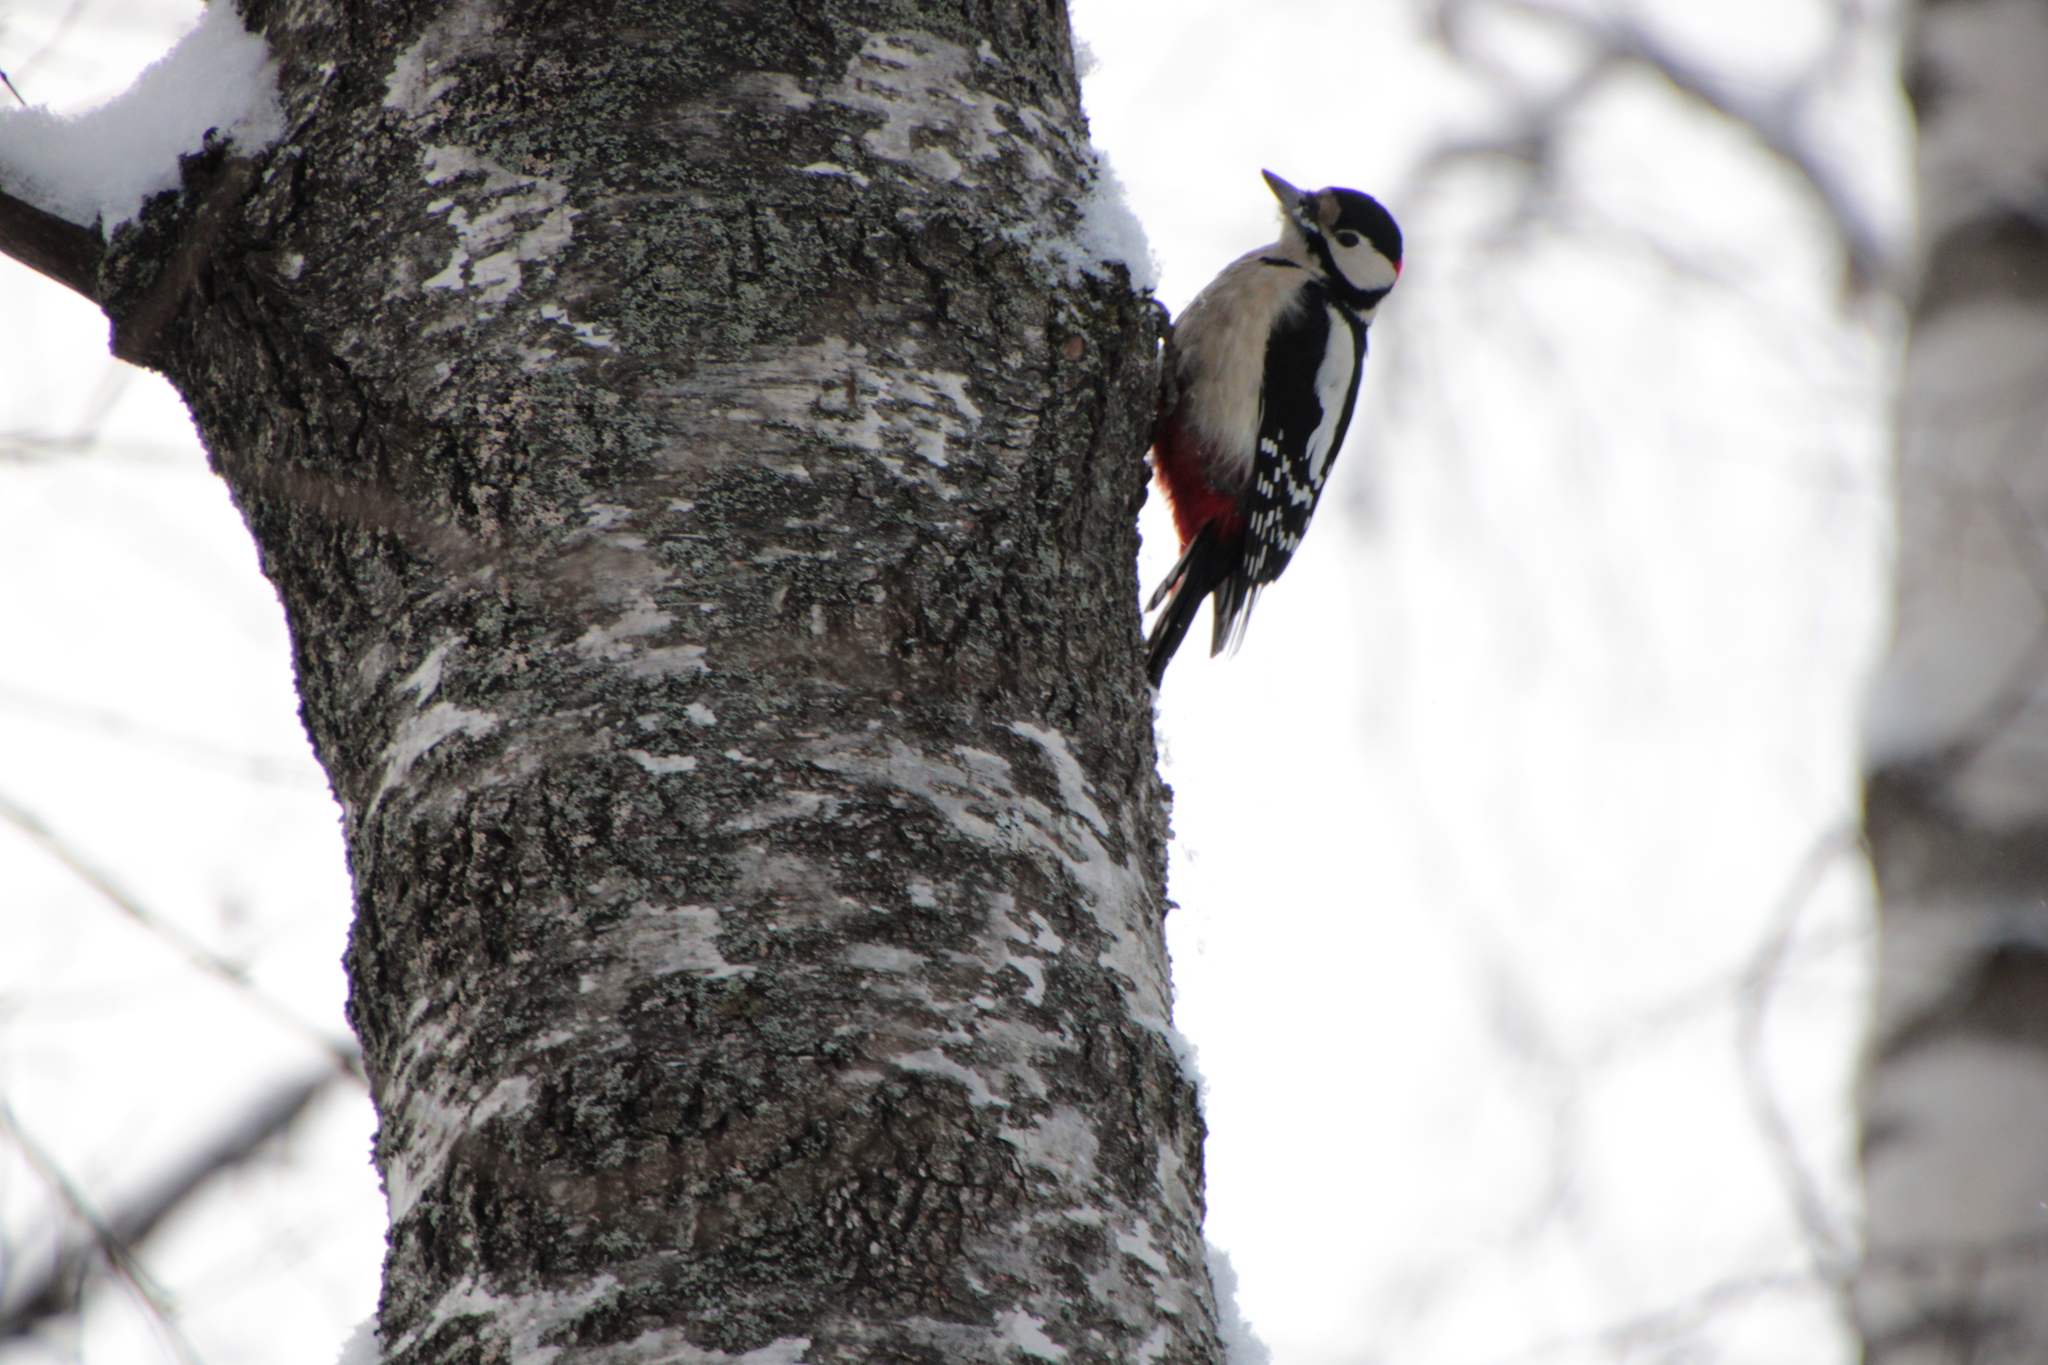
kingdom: Animalia
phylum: Chordata
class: Aves
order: Piciformes
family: Picidae
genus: Dendrocopos
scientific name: Dendrocopos major
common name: Great spotted woodpecker
